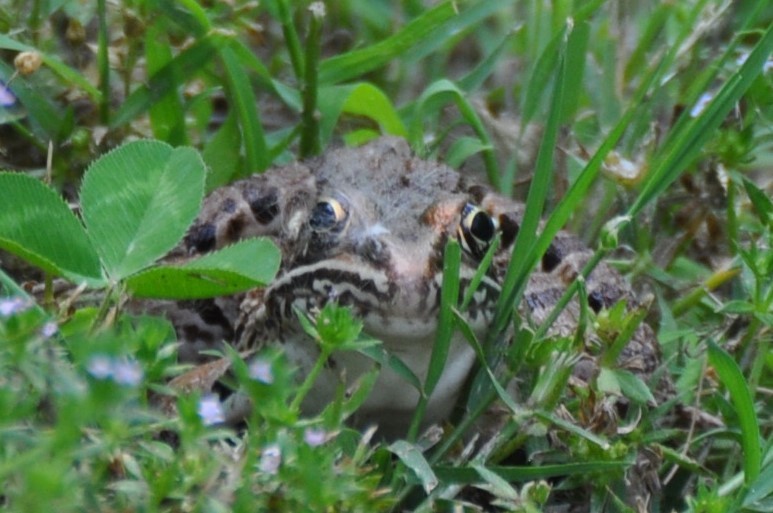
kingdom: Animalia
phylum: Chordata
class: Amphibia
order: Anura
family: Ranidae
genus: Lithobates
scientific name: Lithobates blairi
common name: Plains leopard frog
